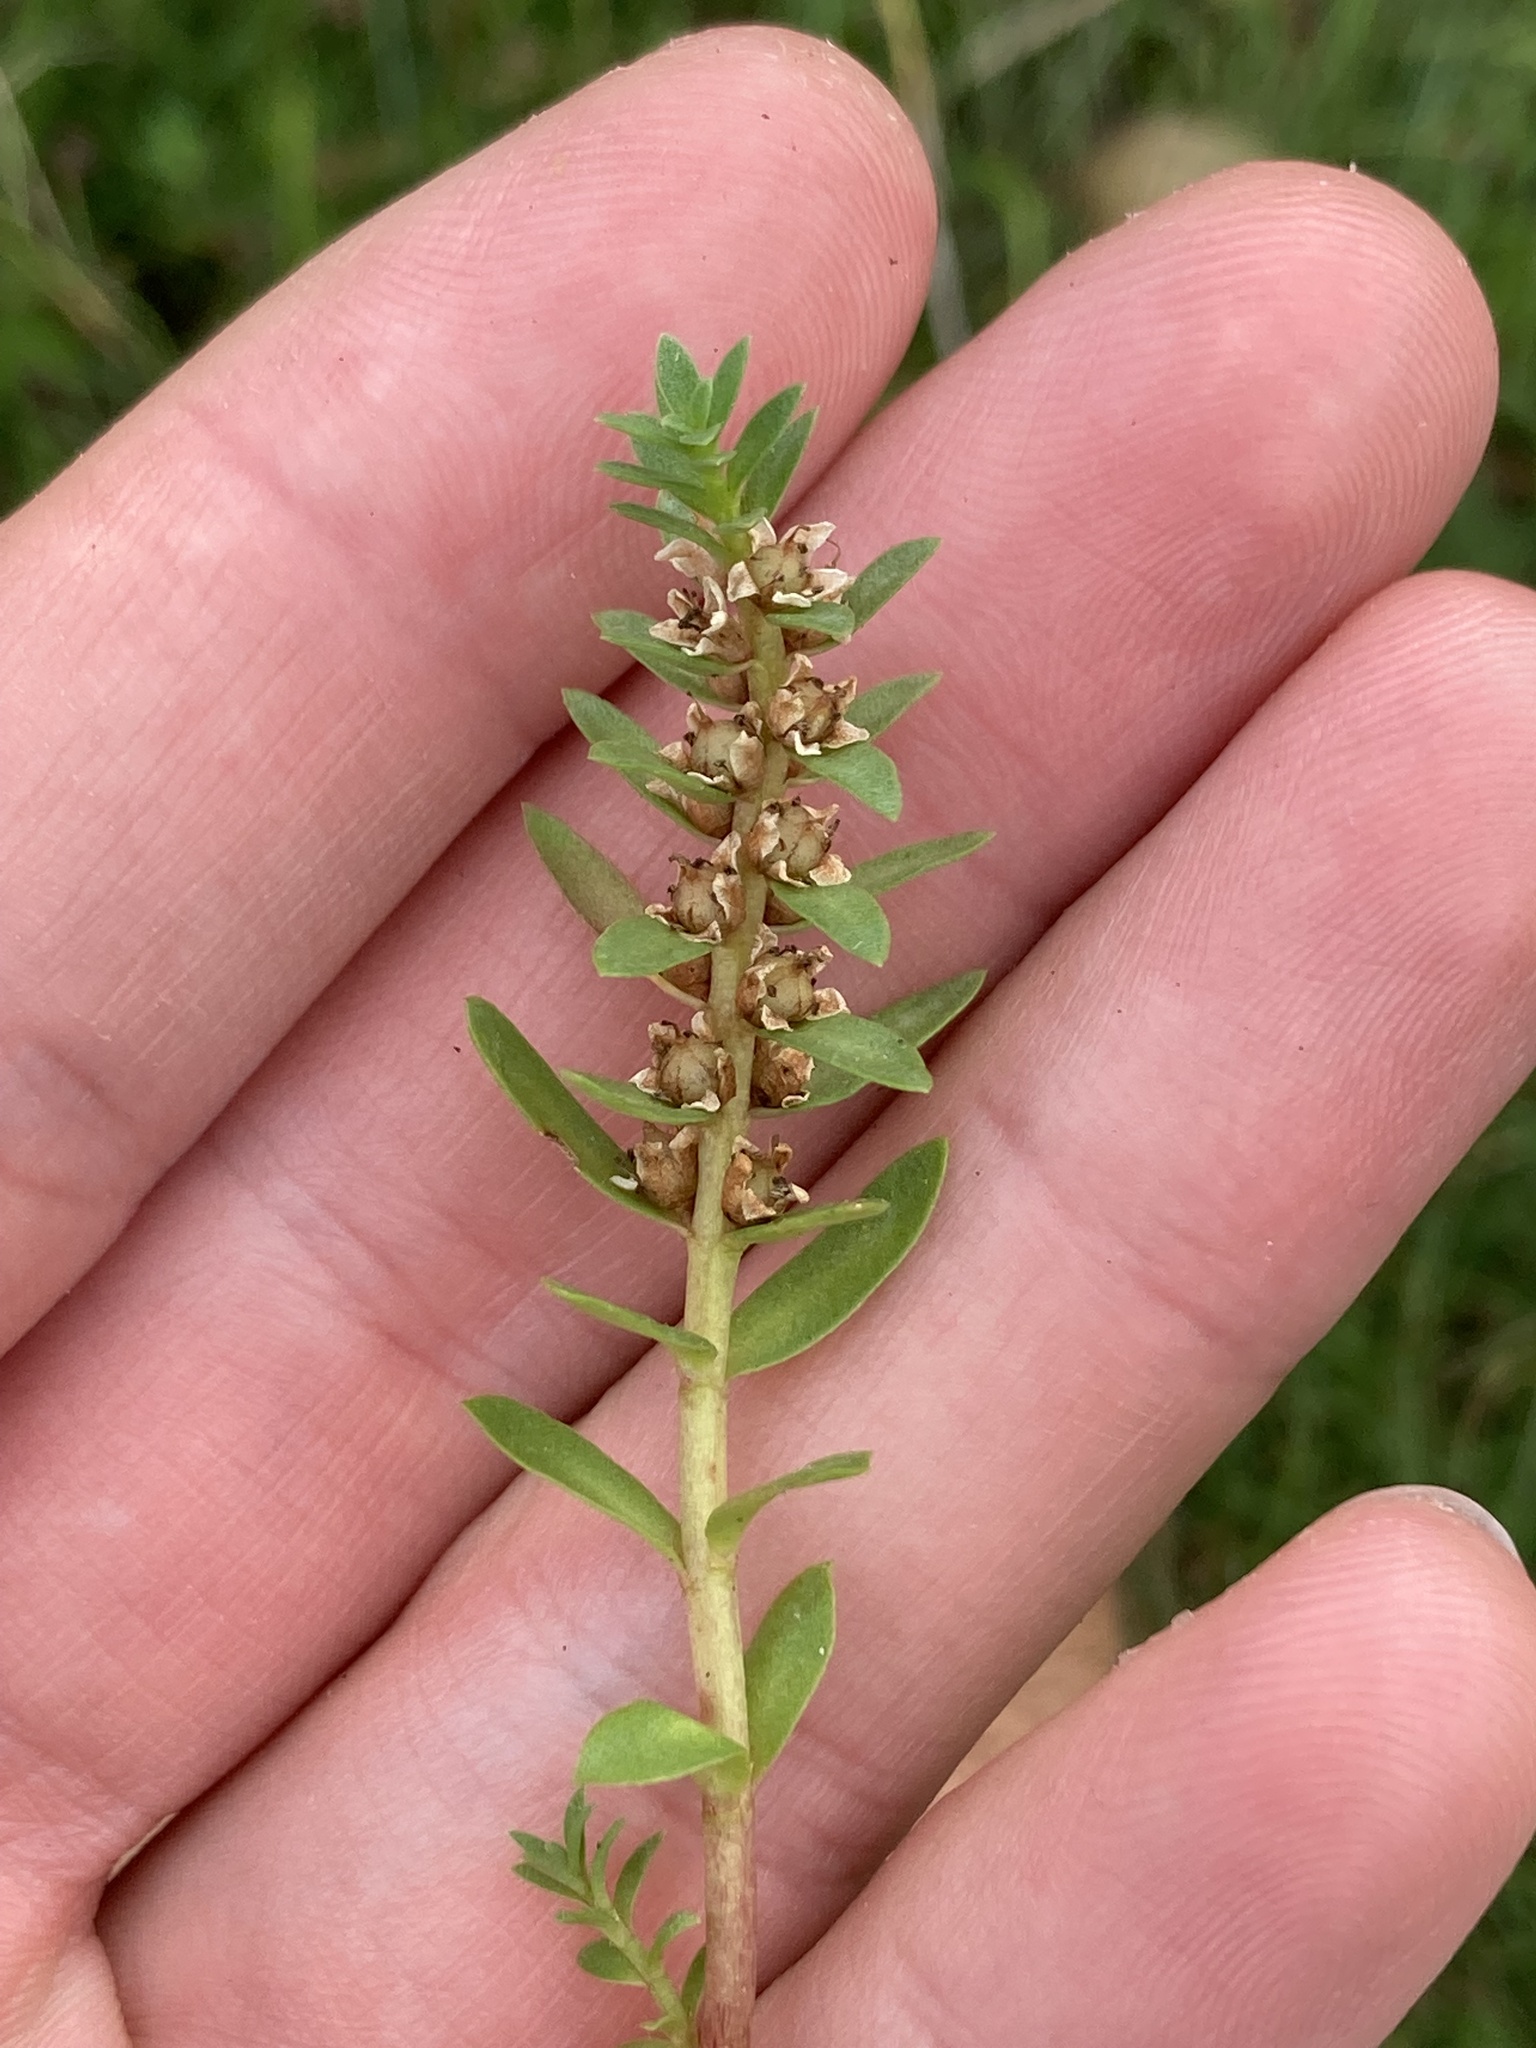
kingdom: Plantae
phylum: Tracheophyta
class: Magnoliopsida
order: Ericales
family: Primulaceae
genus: Lysimachia
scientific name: Lysimachia maritima
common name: Sea milkwort
